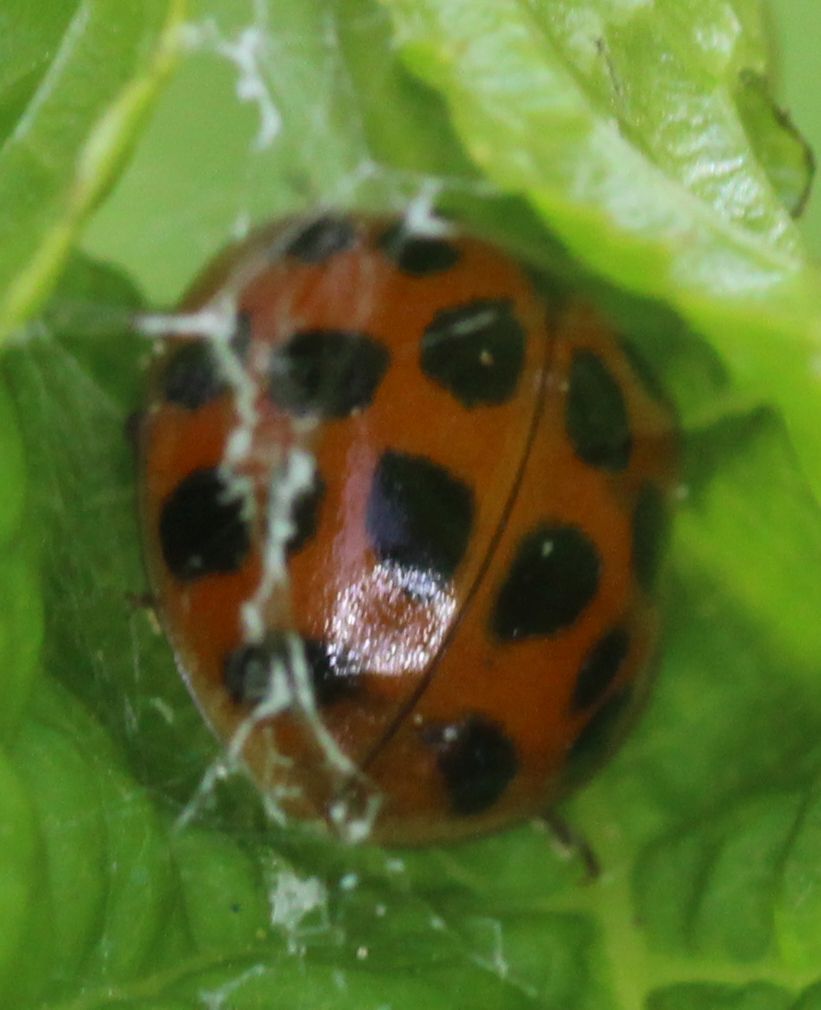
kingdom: Animalia
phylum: Arthropoda
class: Insecta
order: Coleoptera
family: Coccinellidae
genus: Harmonia
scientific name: Harmonia axyridis
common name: Harlequin ladybird
